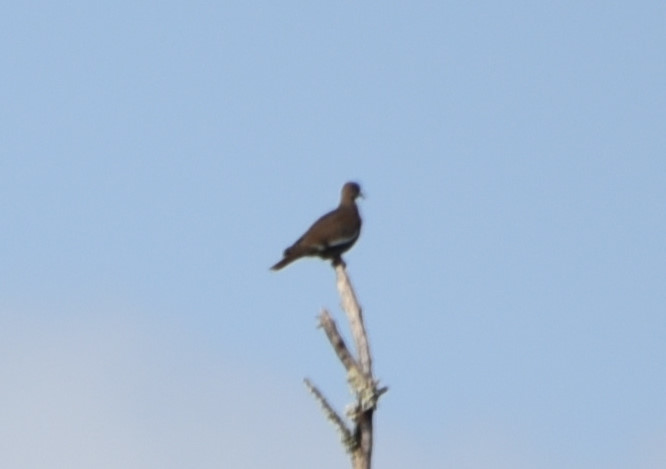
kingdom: Animalia
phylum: Chordata
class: Aves
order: Columbiformes
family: Columbidae
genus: Zenaida
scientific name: Zenaida asiatica
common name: White-winged dove
